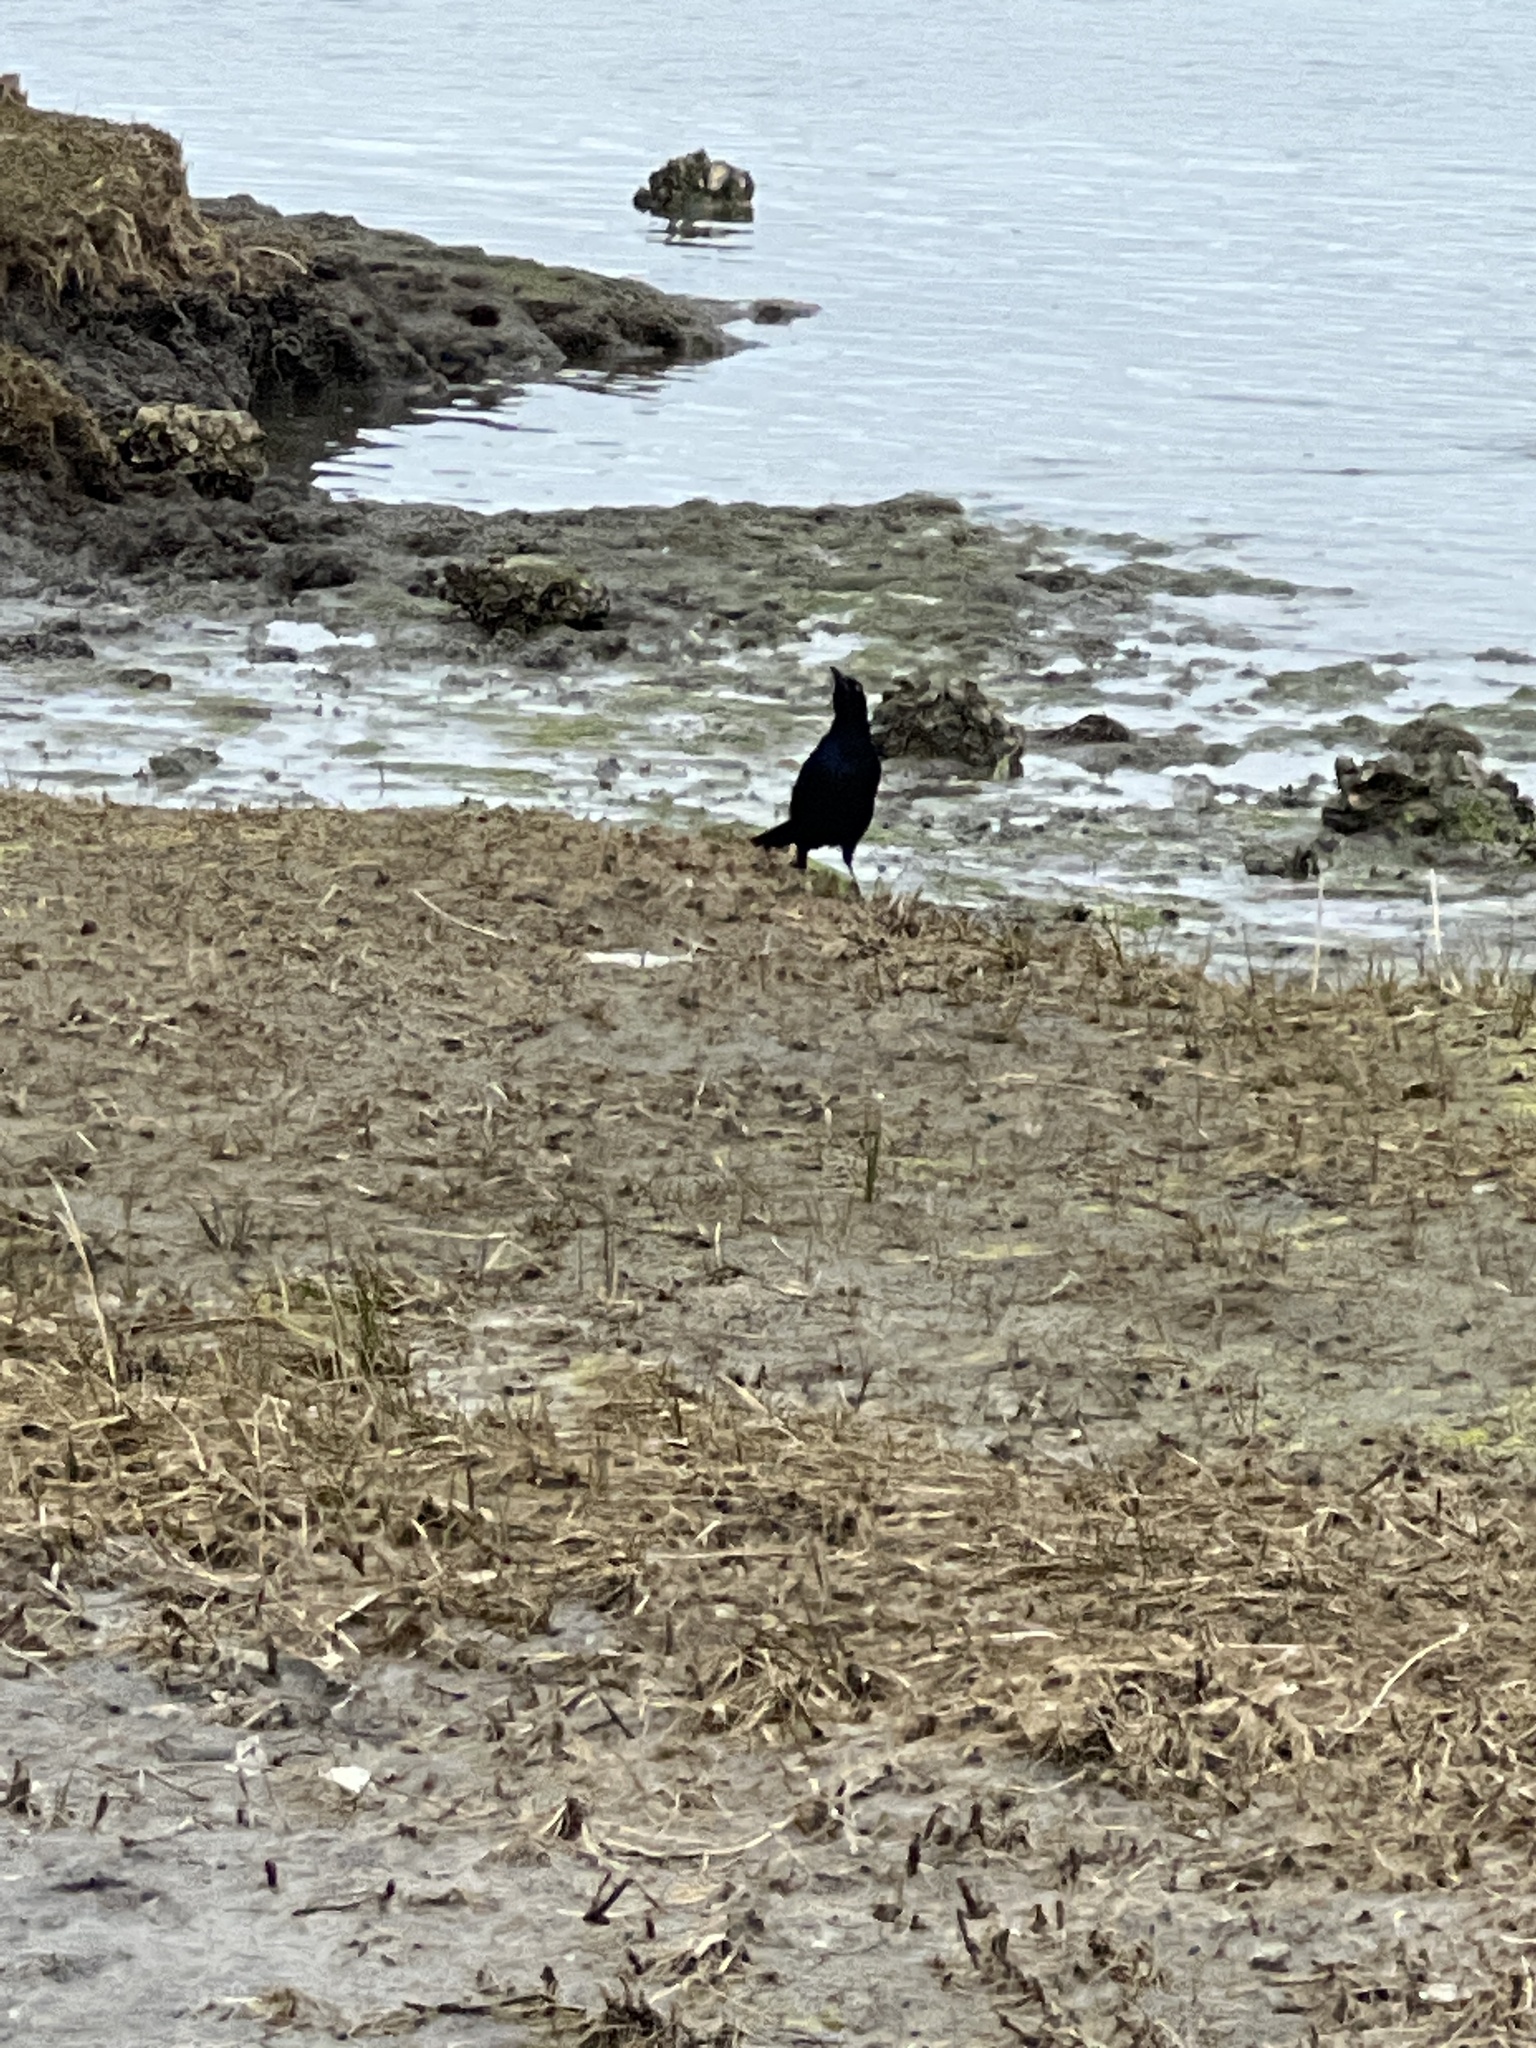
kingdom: Animalia
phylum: Chordata
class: Aves
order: Passeriformes
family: Icteridae
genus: Quiscalus
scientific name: Quiscalus major
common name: Boat-tailed grackle
